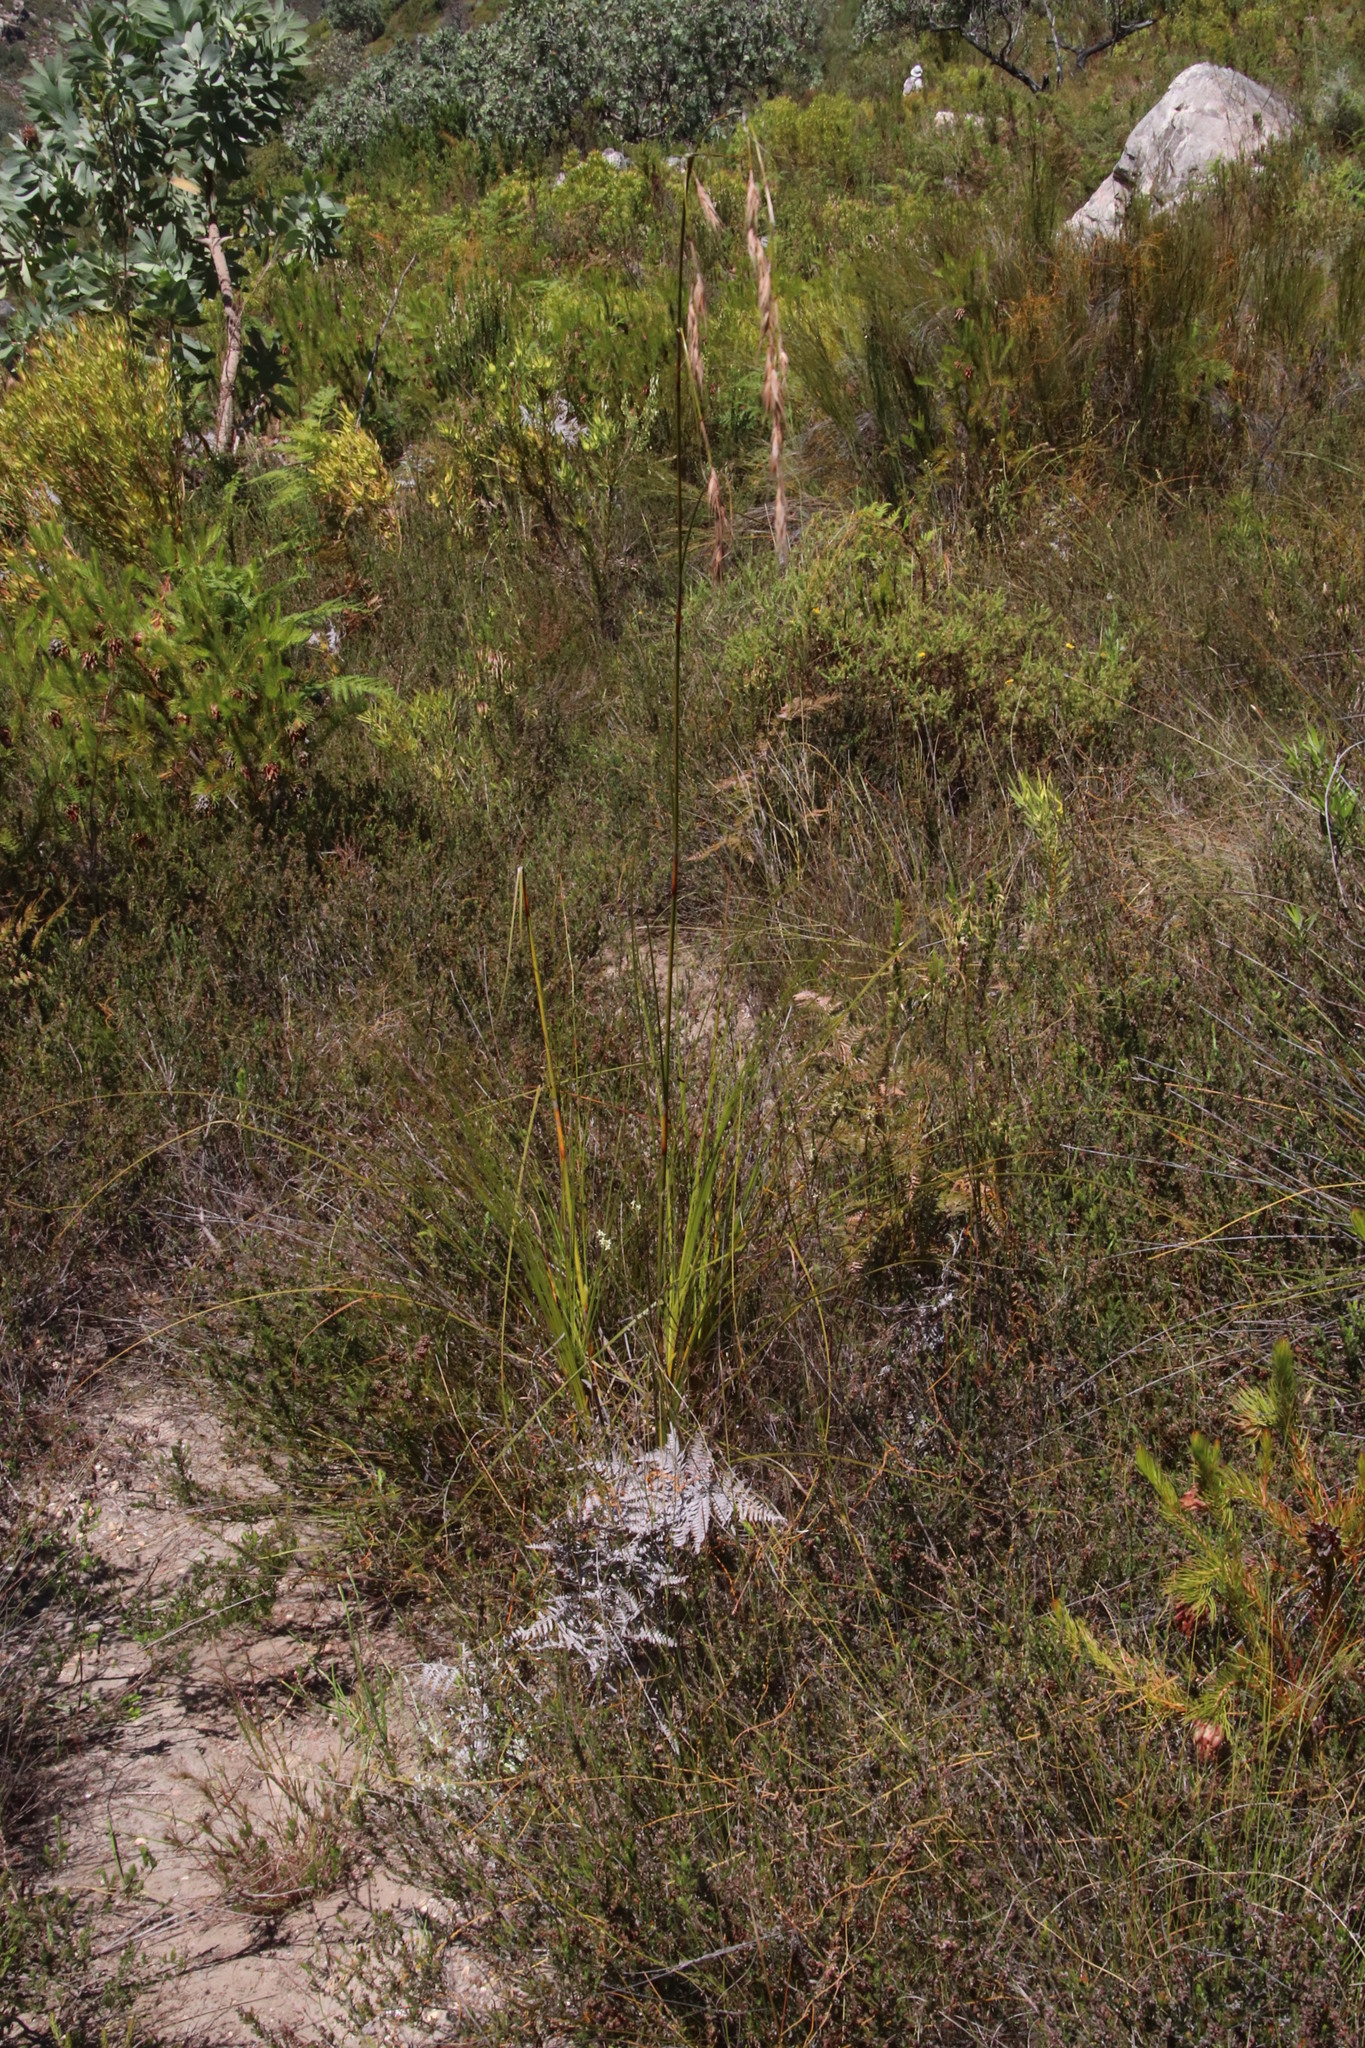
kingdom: Plantae
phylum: Tracheophyta
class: Liliopsida
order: Poales
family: Cyperaceae
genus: Tetraria
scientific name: Tetraria involucrata
